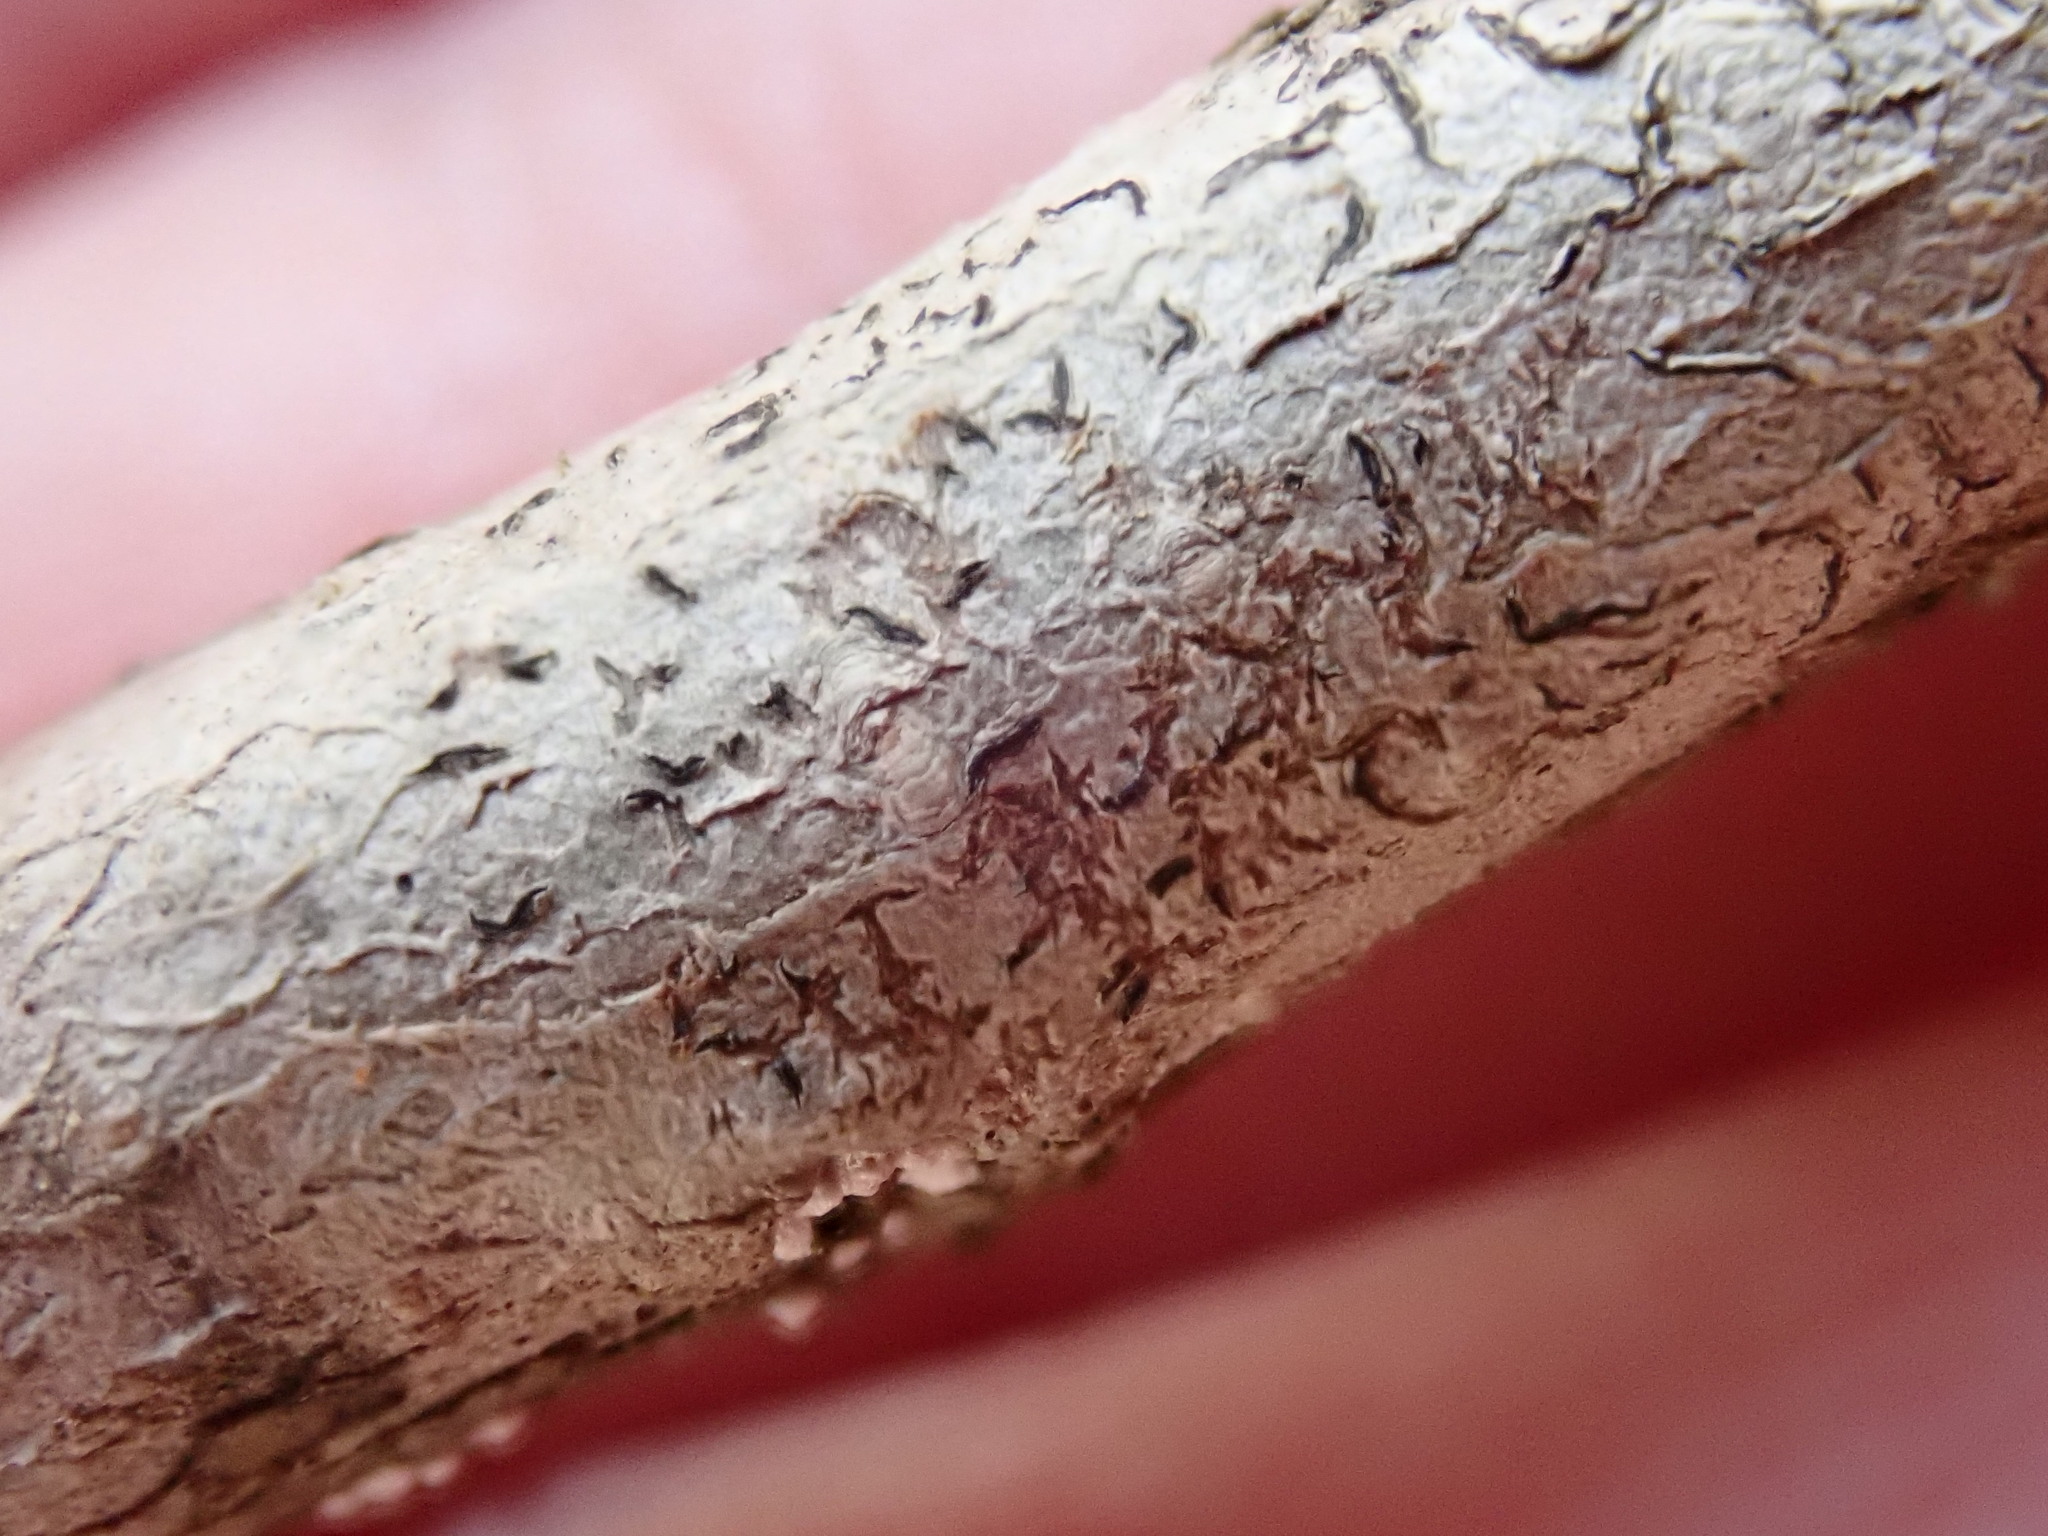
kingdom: Fungi
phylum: Ascomycota
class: Lecanoromycetes
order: Ostropales
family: Graphidaceae
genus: Graphis
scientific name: Graphis scripta
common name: Script lichen
